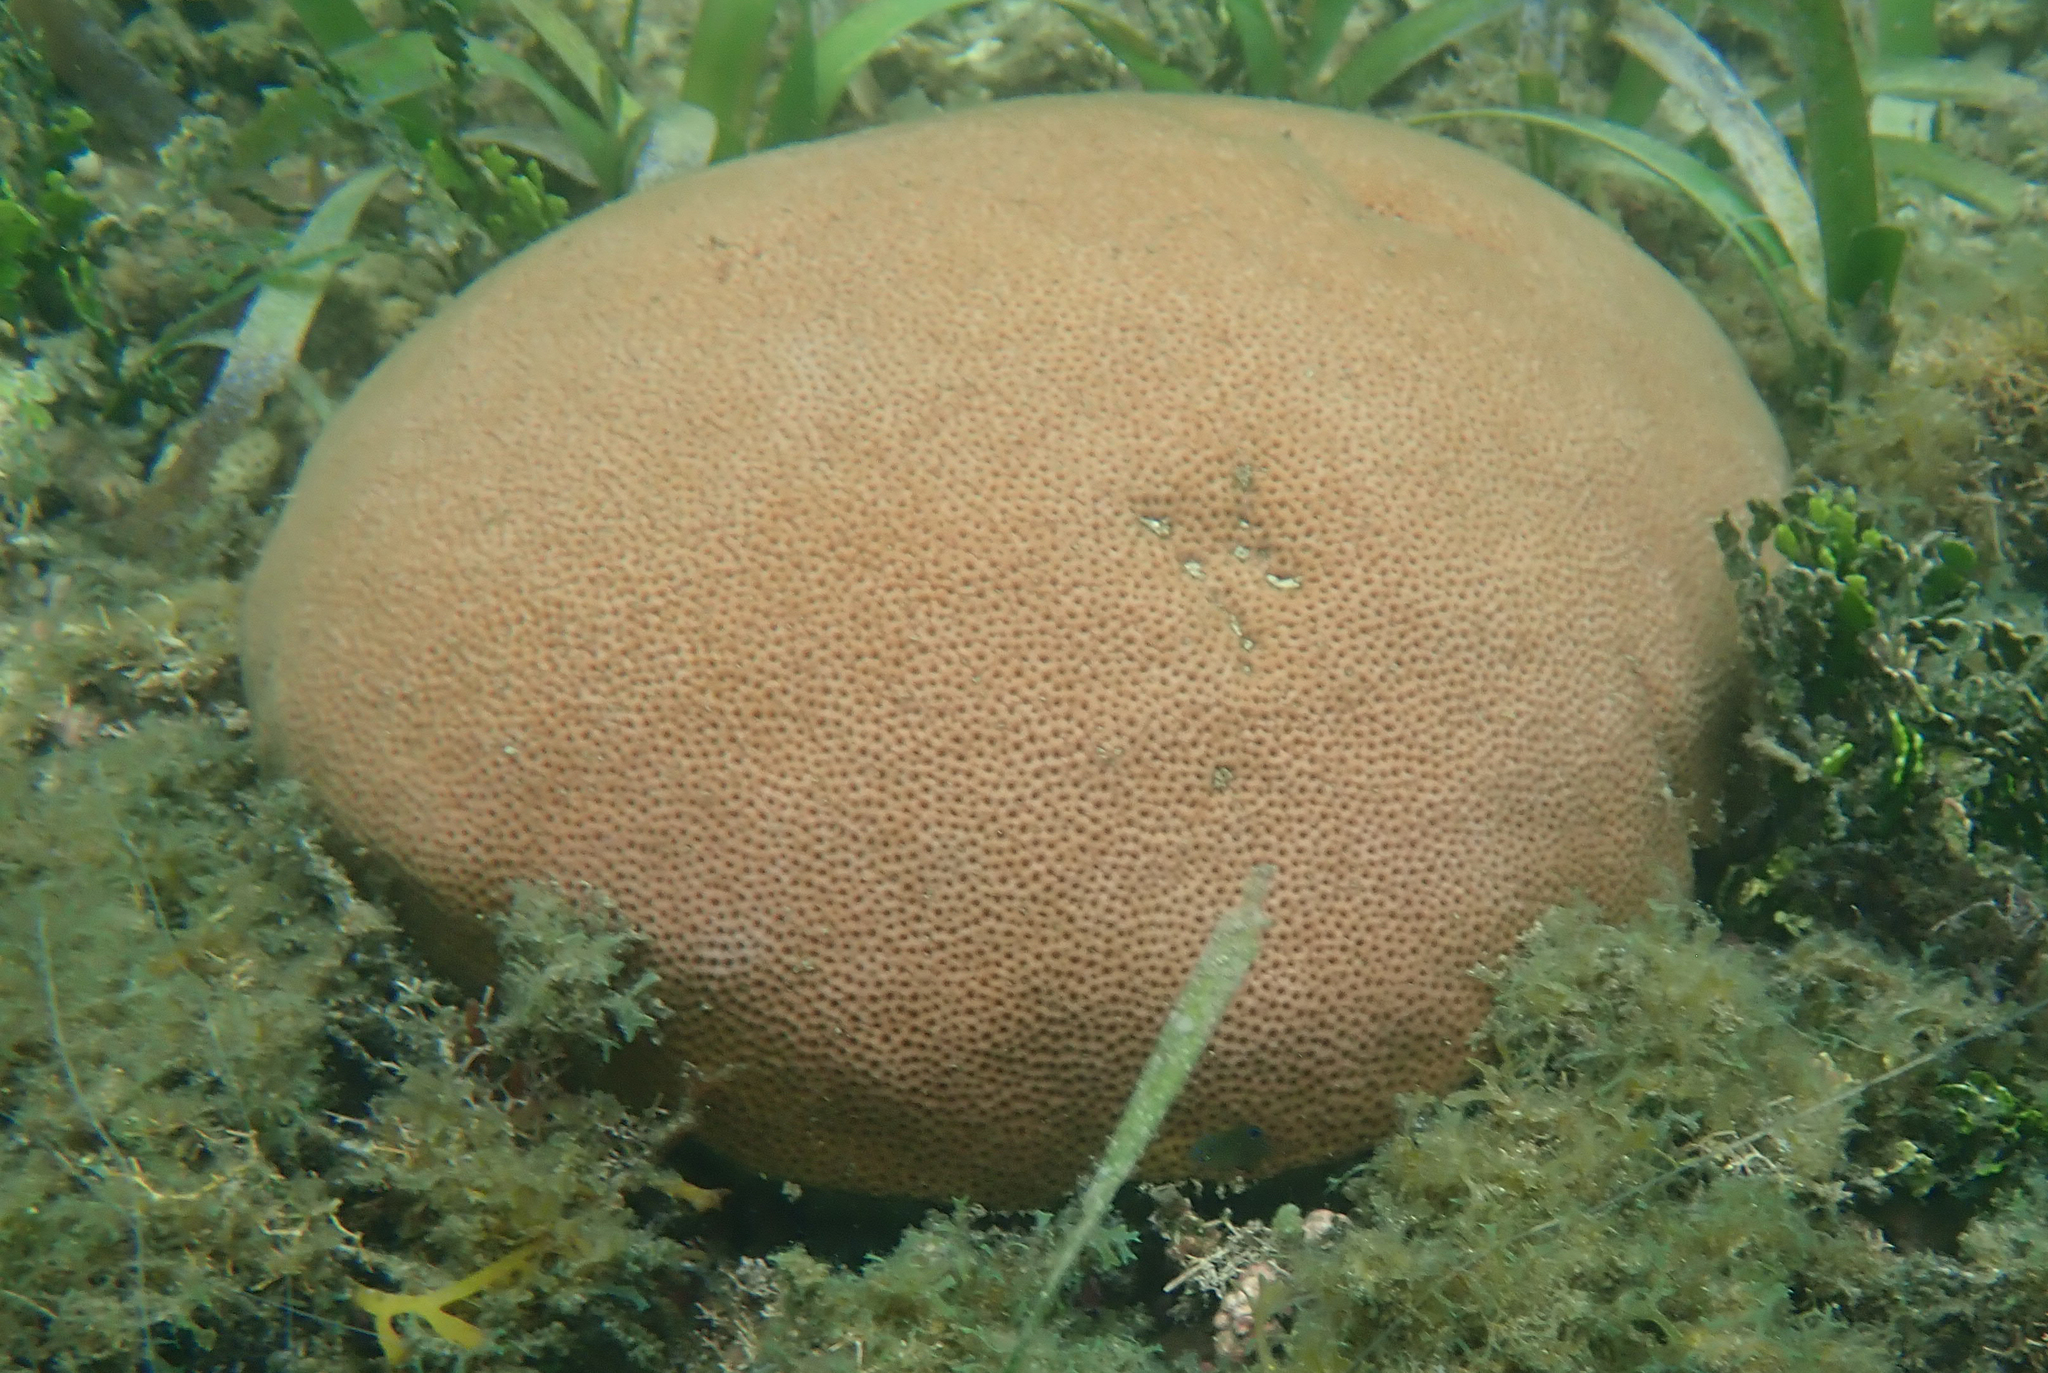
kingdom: Animalia
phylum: Cnidaria
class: Anthozoa
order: Scleractinia
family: Rhizangiidae
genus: Siderastrea
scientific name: Siderastrea siderea
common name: Massive starlet coral
